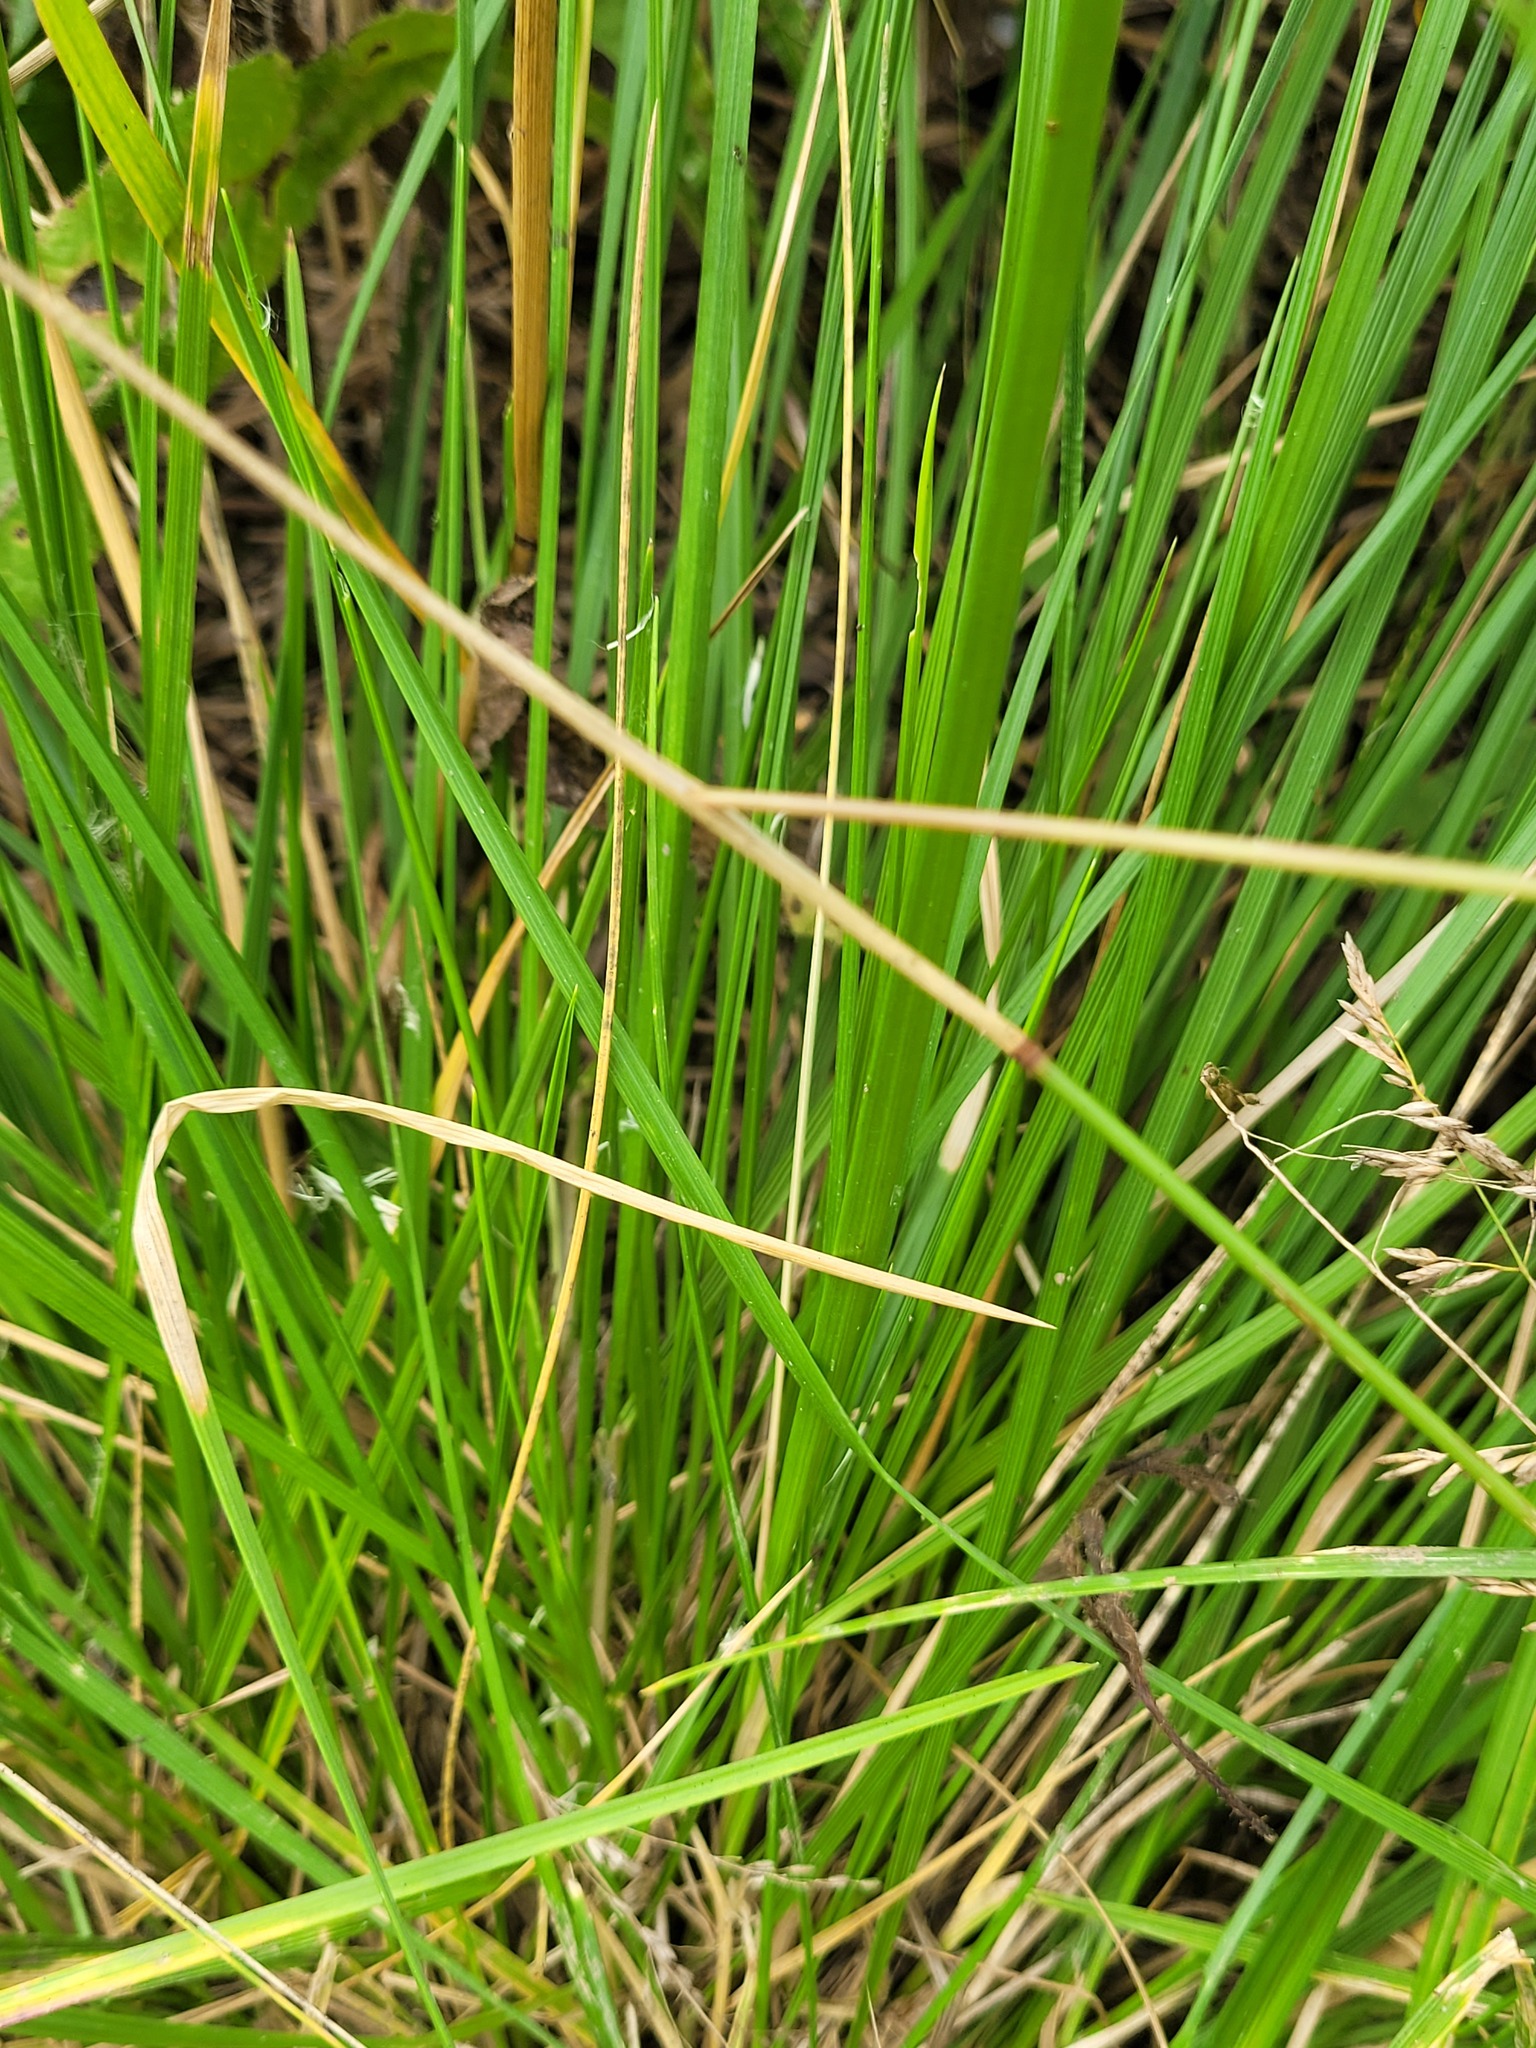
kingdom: Plantae
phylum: Tracheophyta
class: Liliopsida
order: Poales
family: Poaceae
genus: Deschampsia
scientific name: Deschampsia cespitosa
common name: Tufted hair-grass
